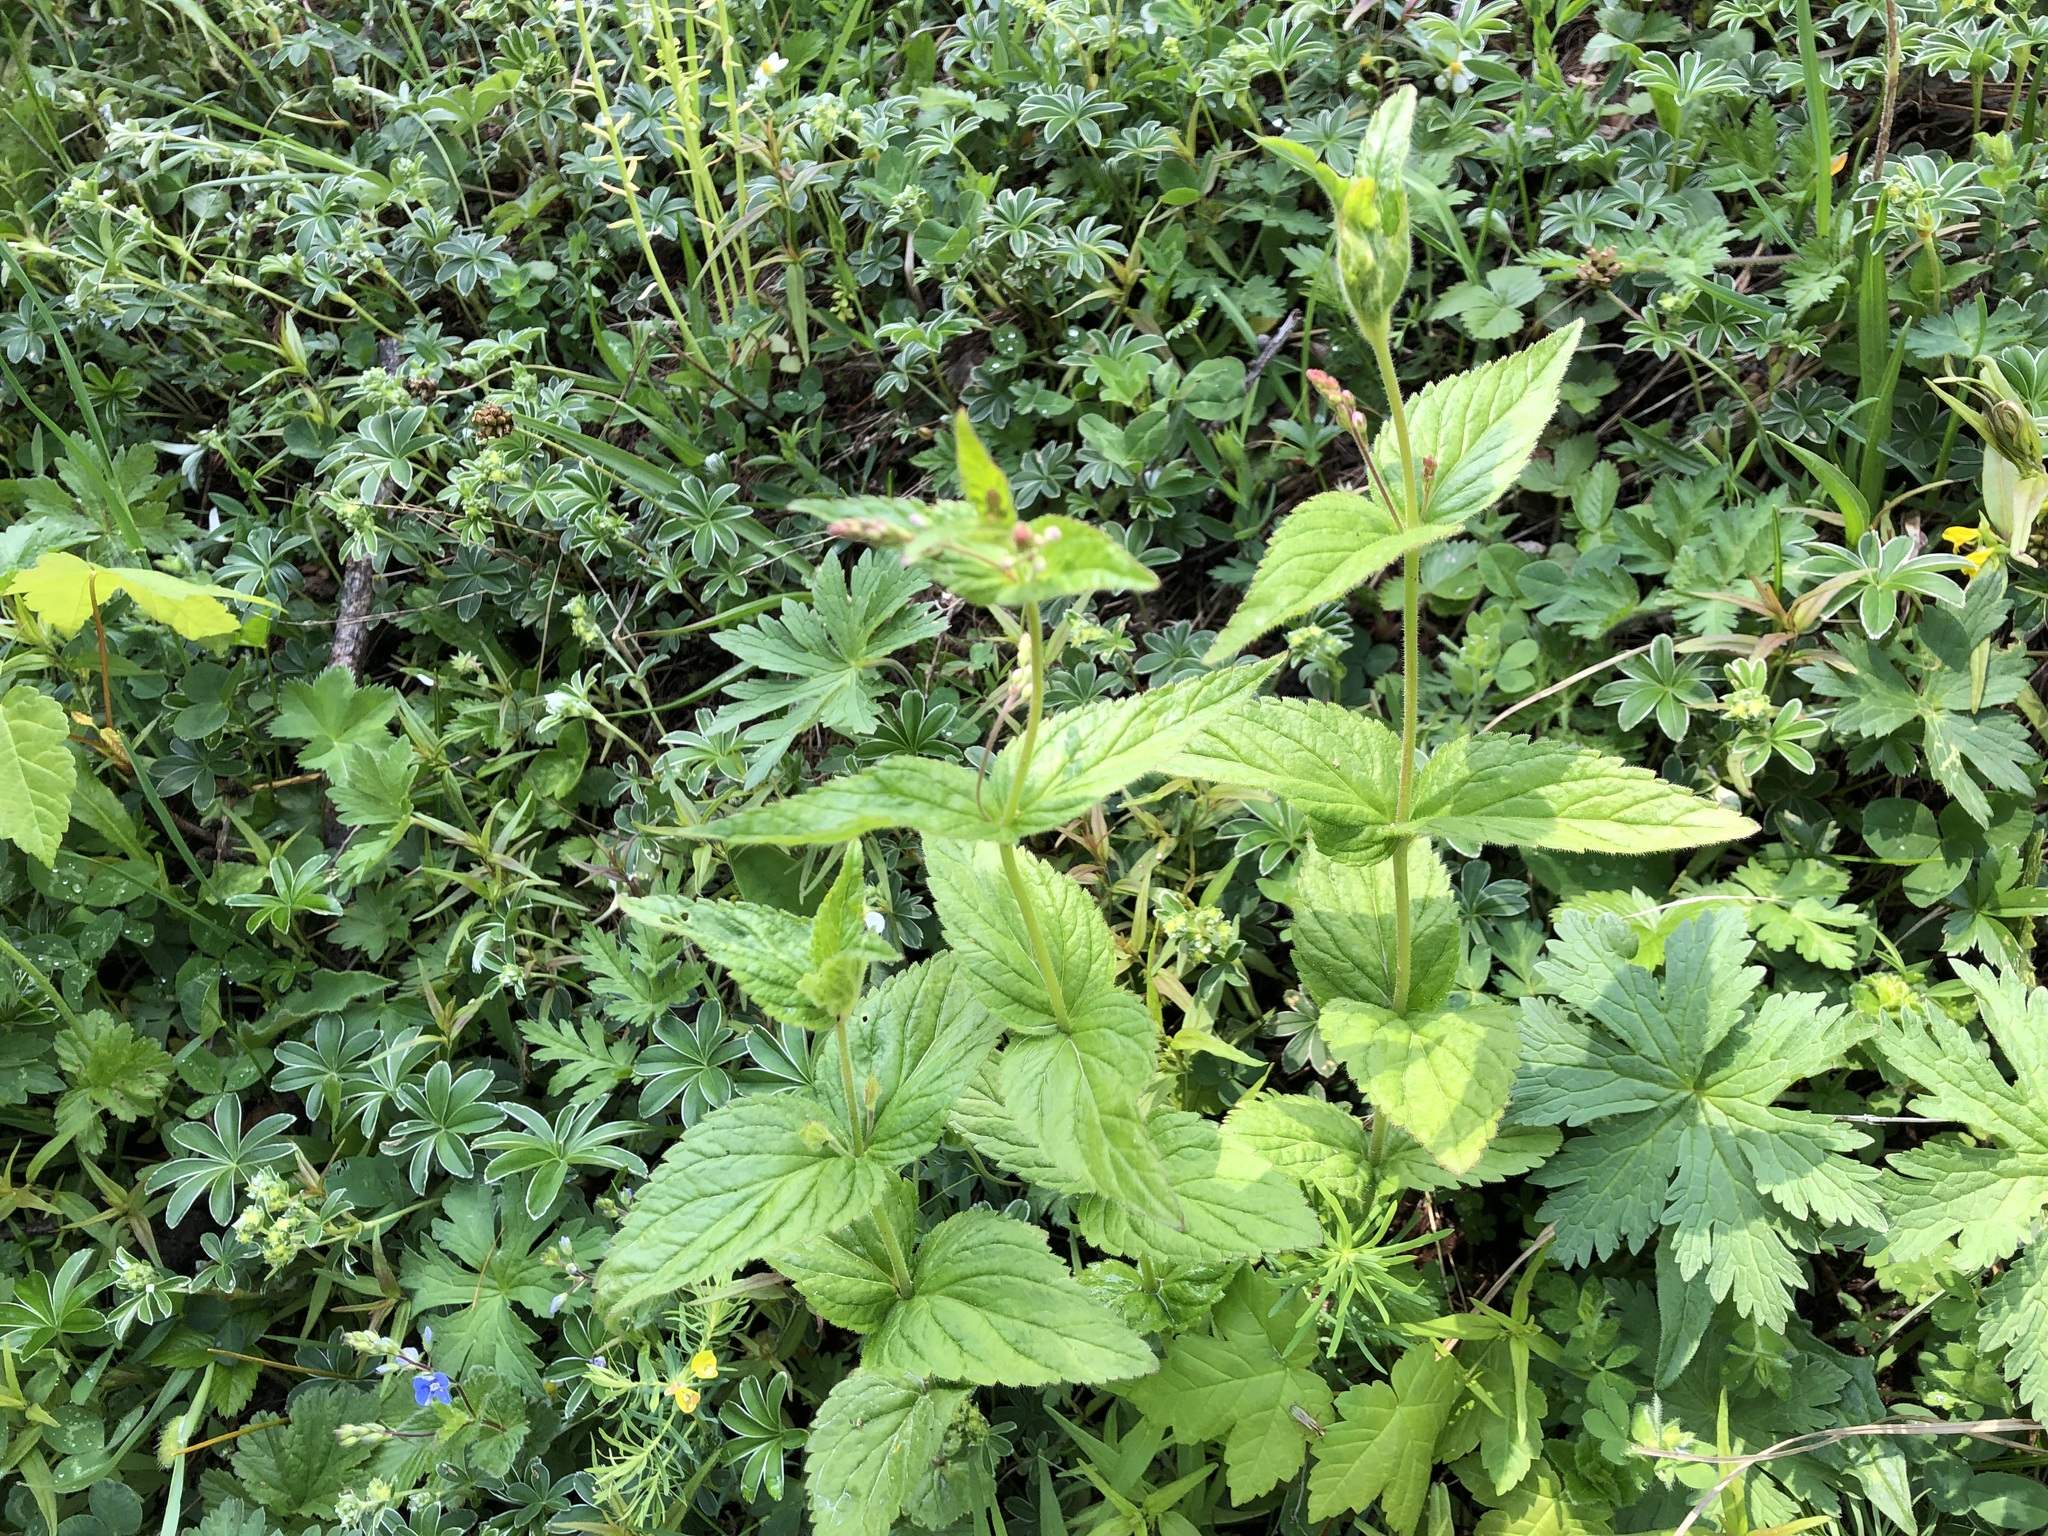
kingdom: Plantae
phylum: Tracheophyta
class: Magnoliopsida
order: Lamiales
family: Plantaginaceae
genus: Veronica
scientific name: Veronica urticifolia
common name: Nettle-leaf speedwell
